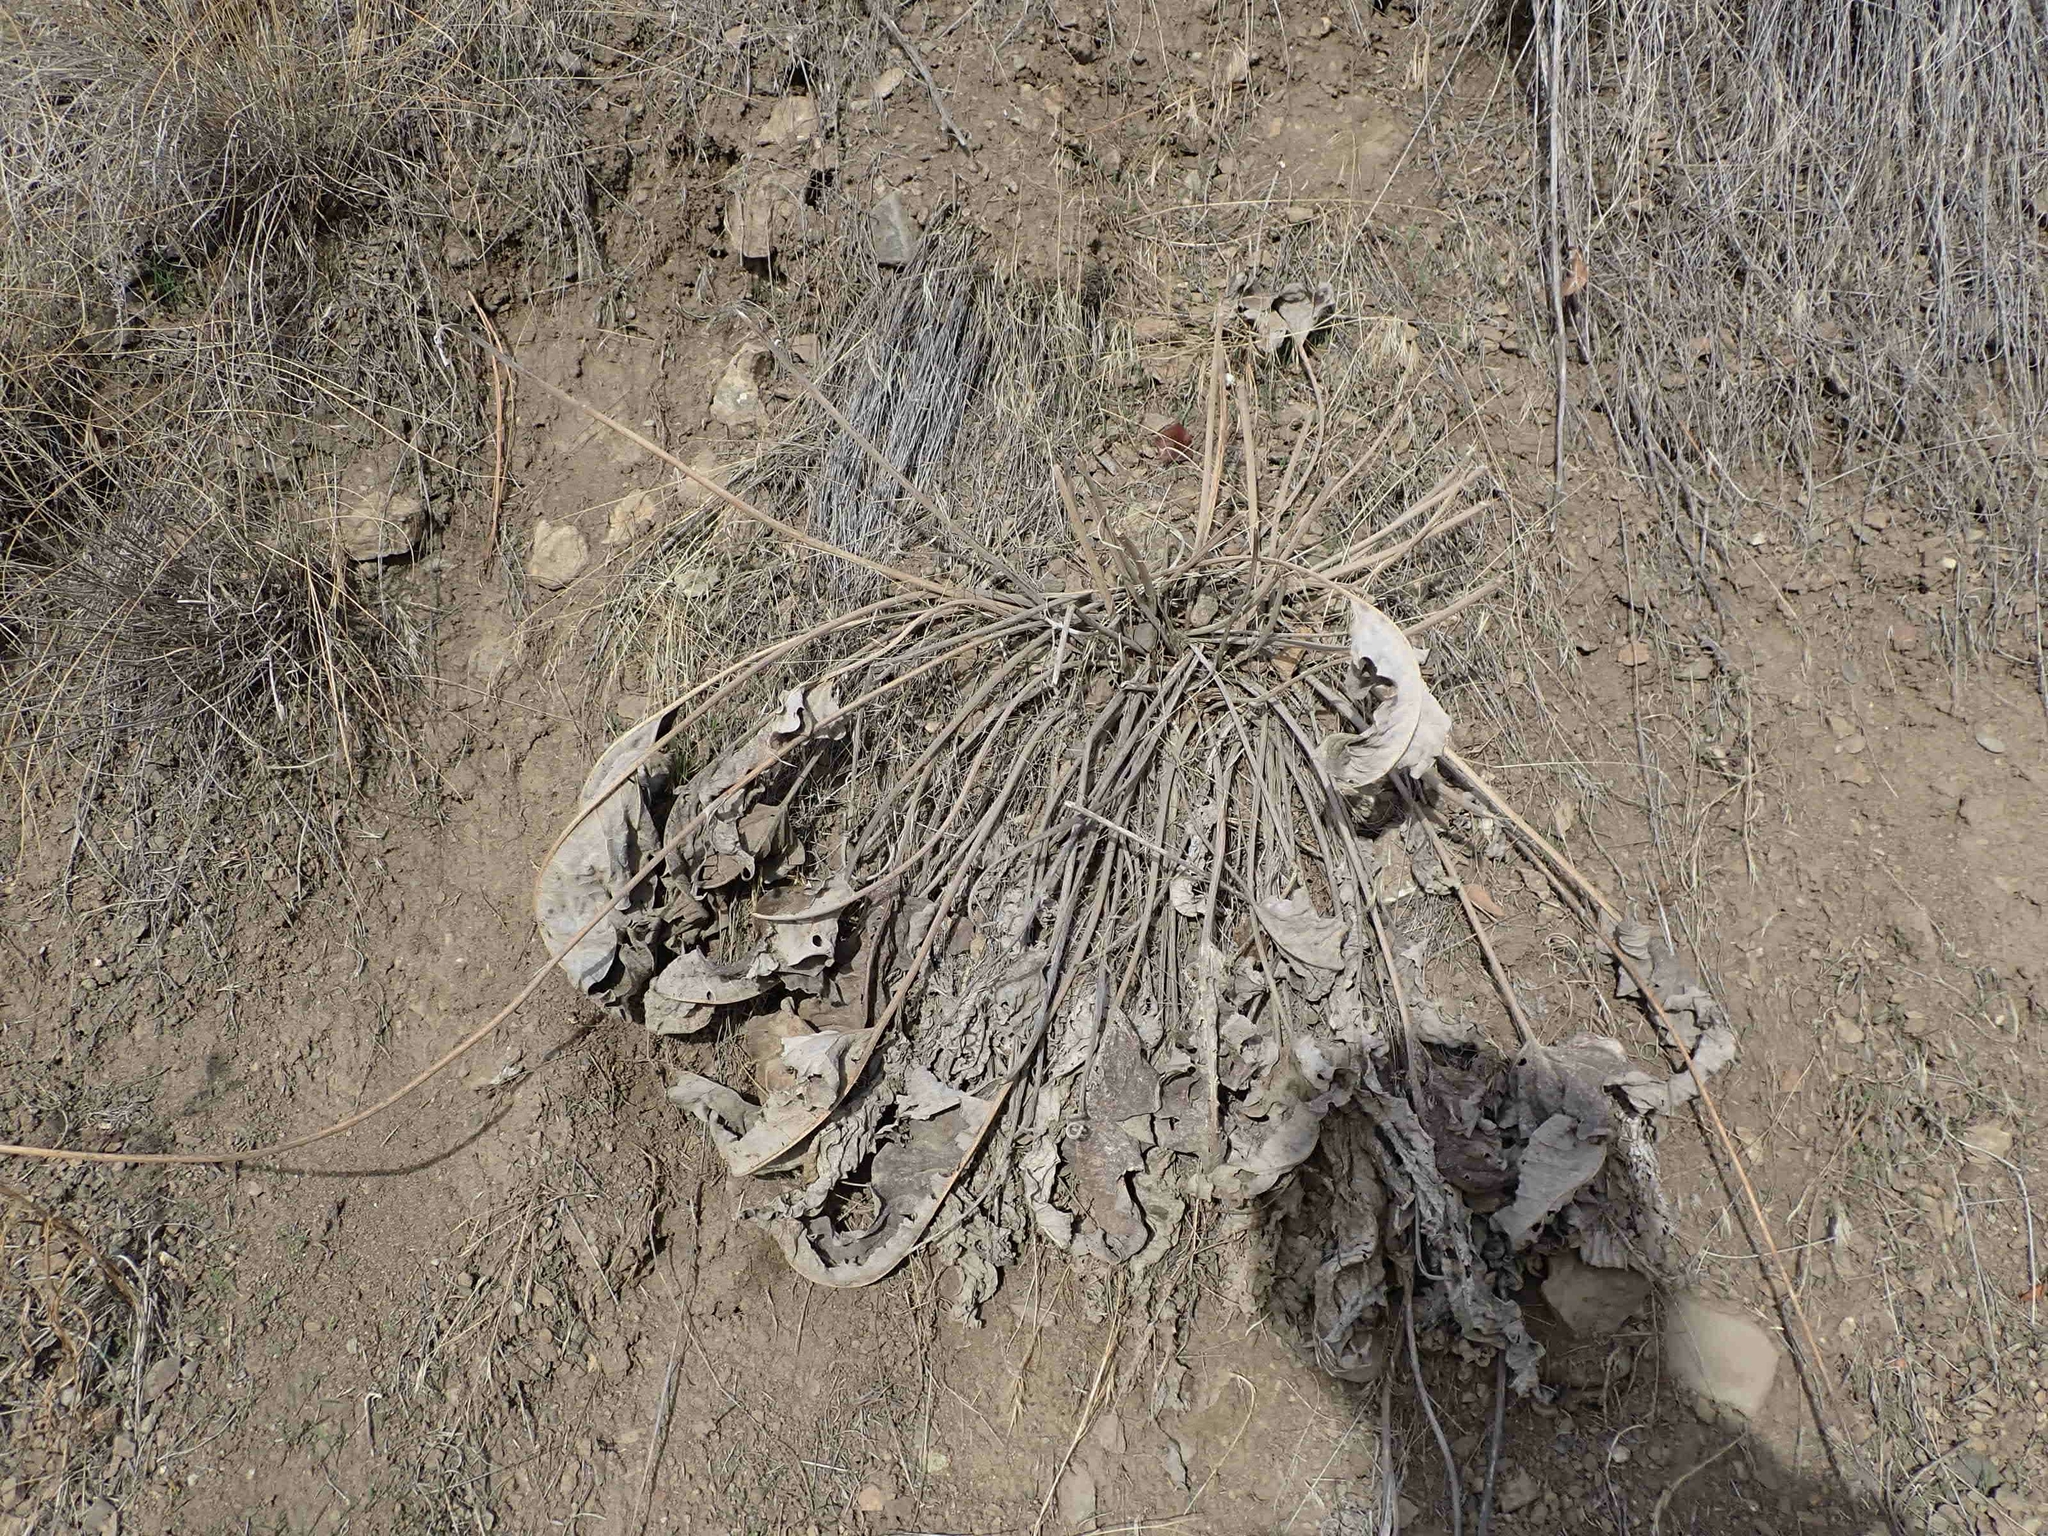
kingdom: Plantae
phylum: Tracheophyta
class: Magnoliopsida
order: Asterales
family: Asteraceae
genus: Wyethia
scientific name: Wyethia sagittata
